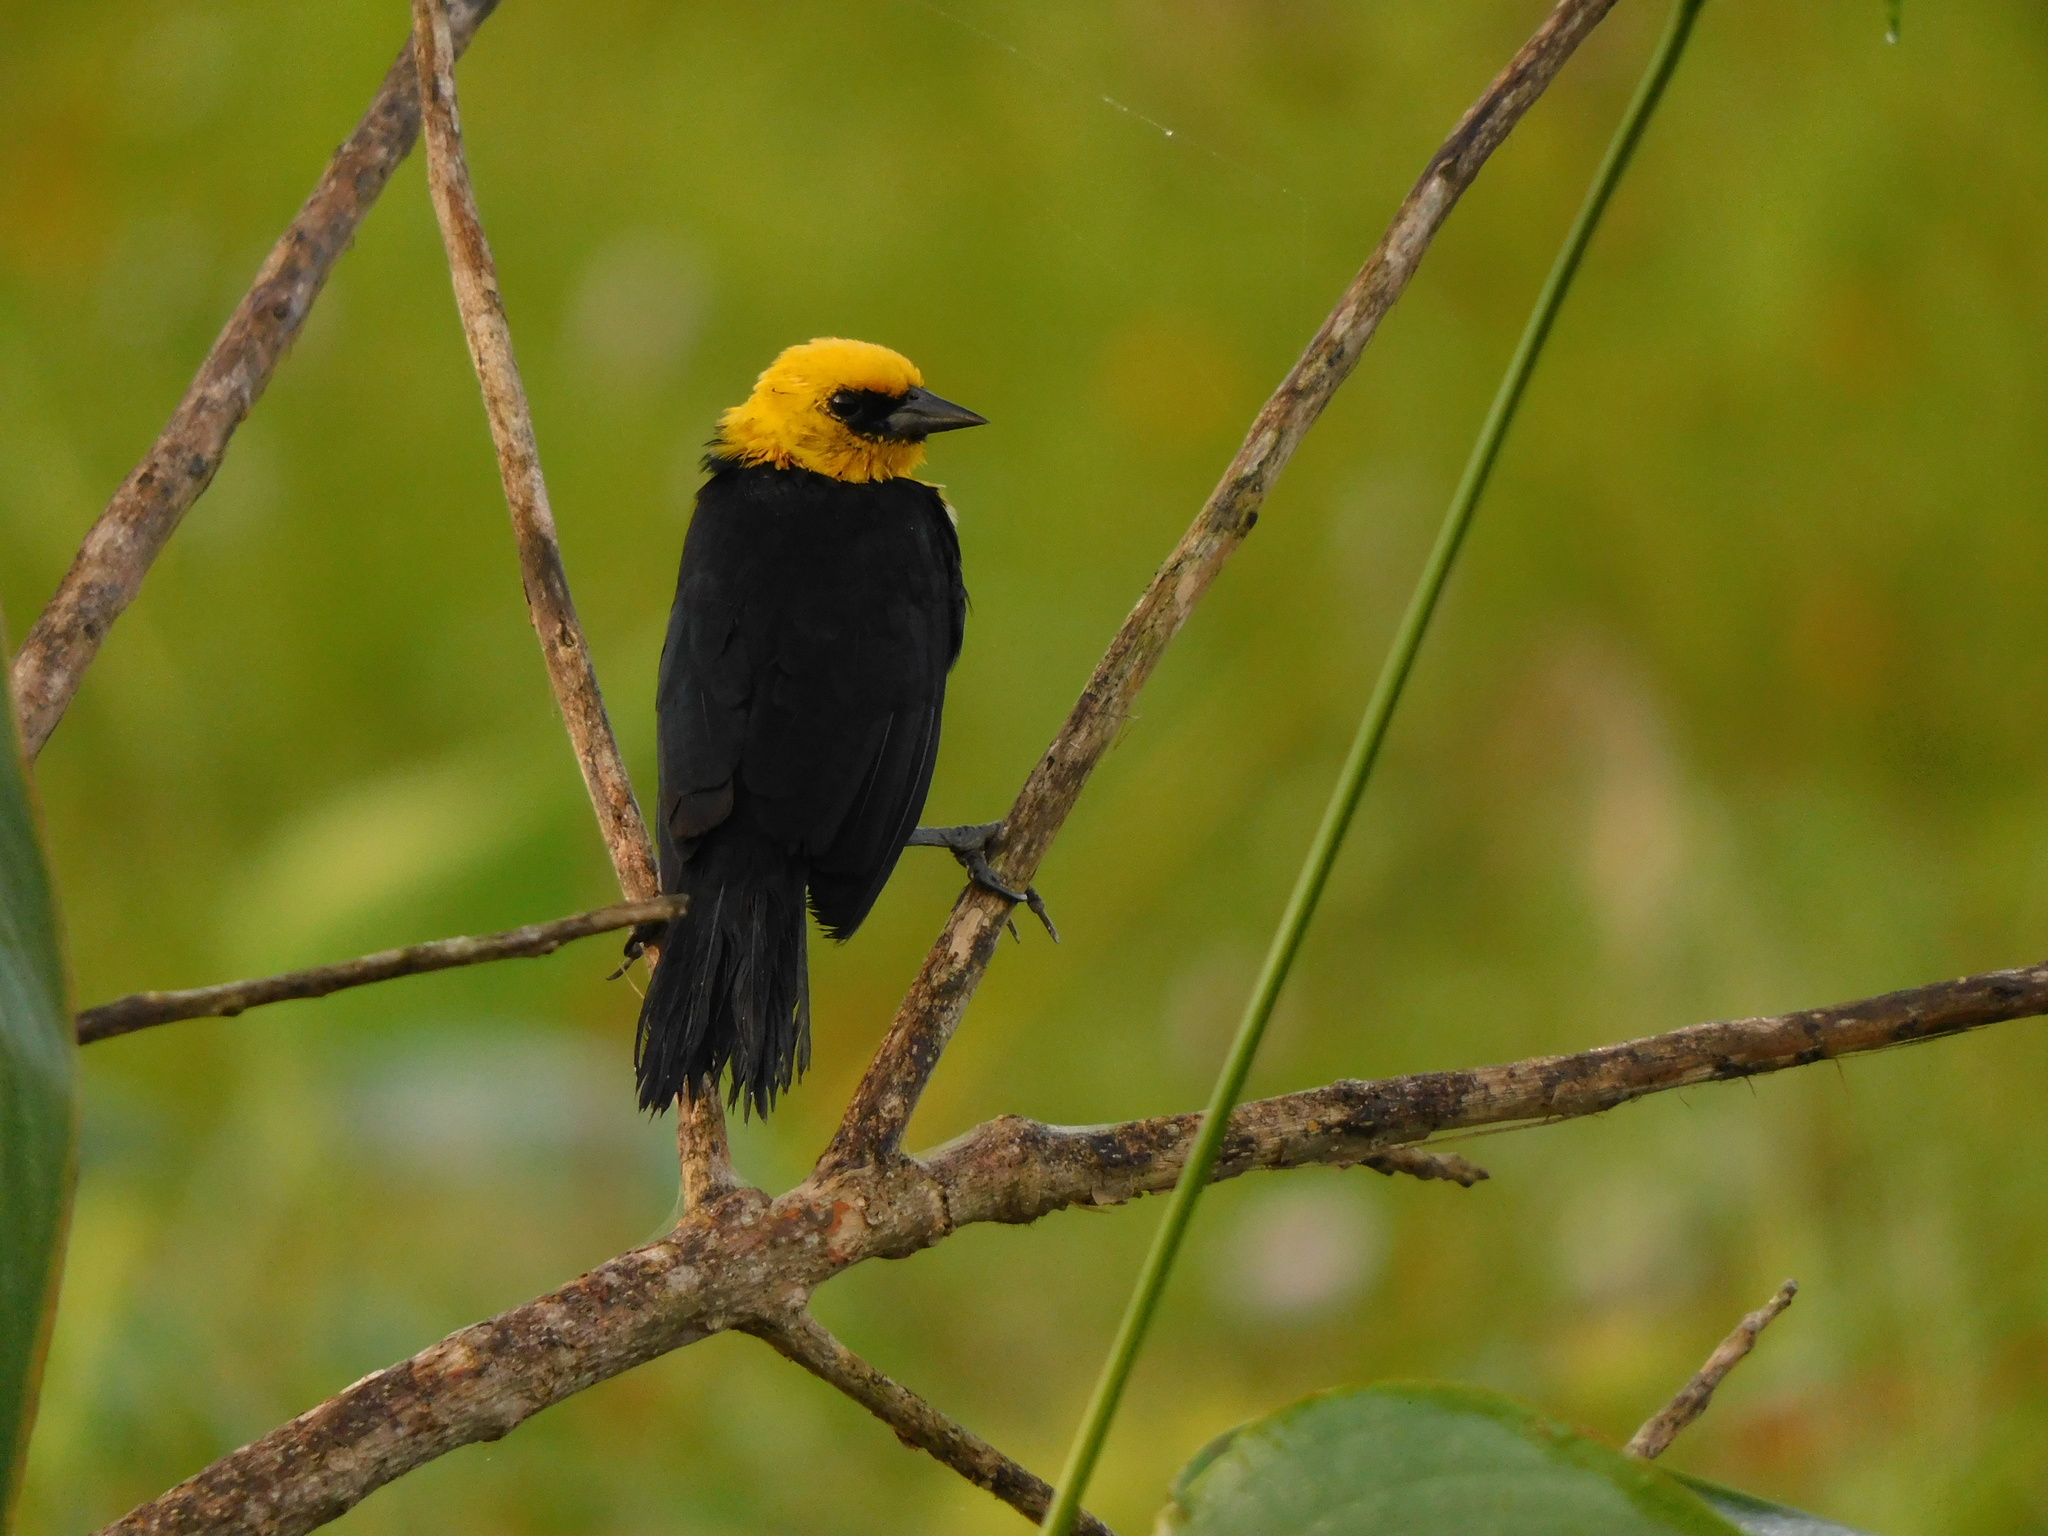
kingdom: Animalia
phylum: Chordata
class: Aves
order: Passeriformes
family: Icteridae
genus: Chrysomus
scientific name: Chrysomus icterocephalus
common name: Yellow-hooded blackbird
